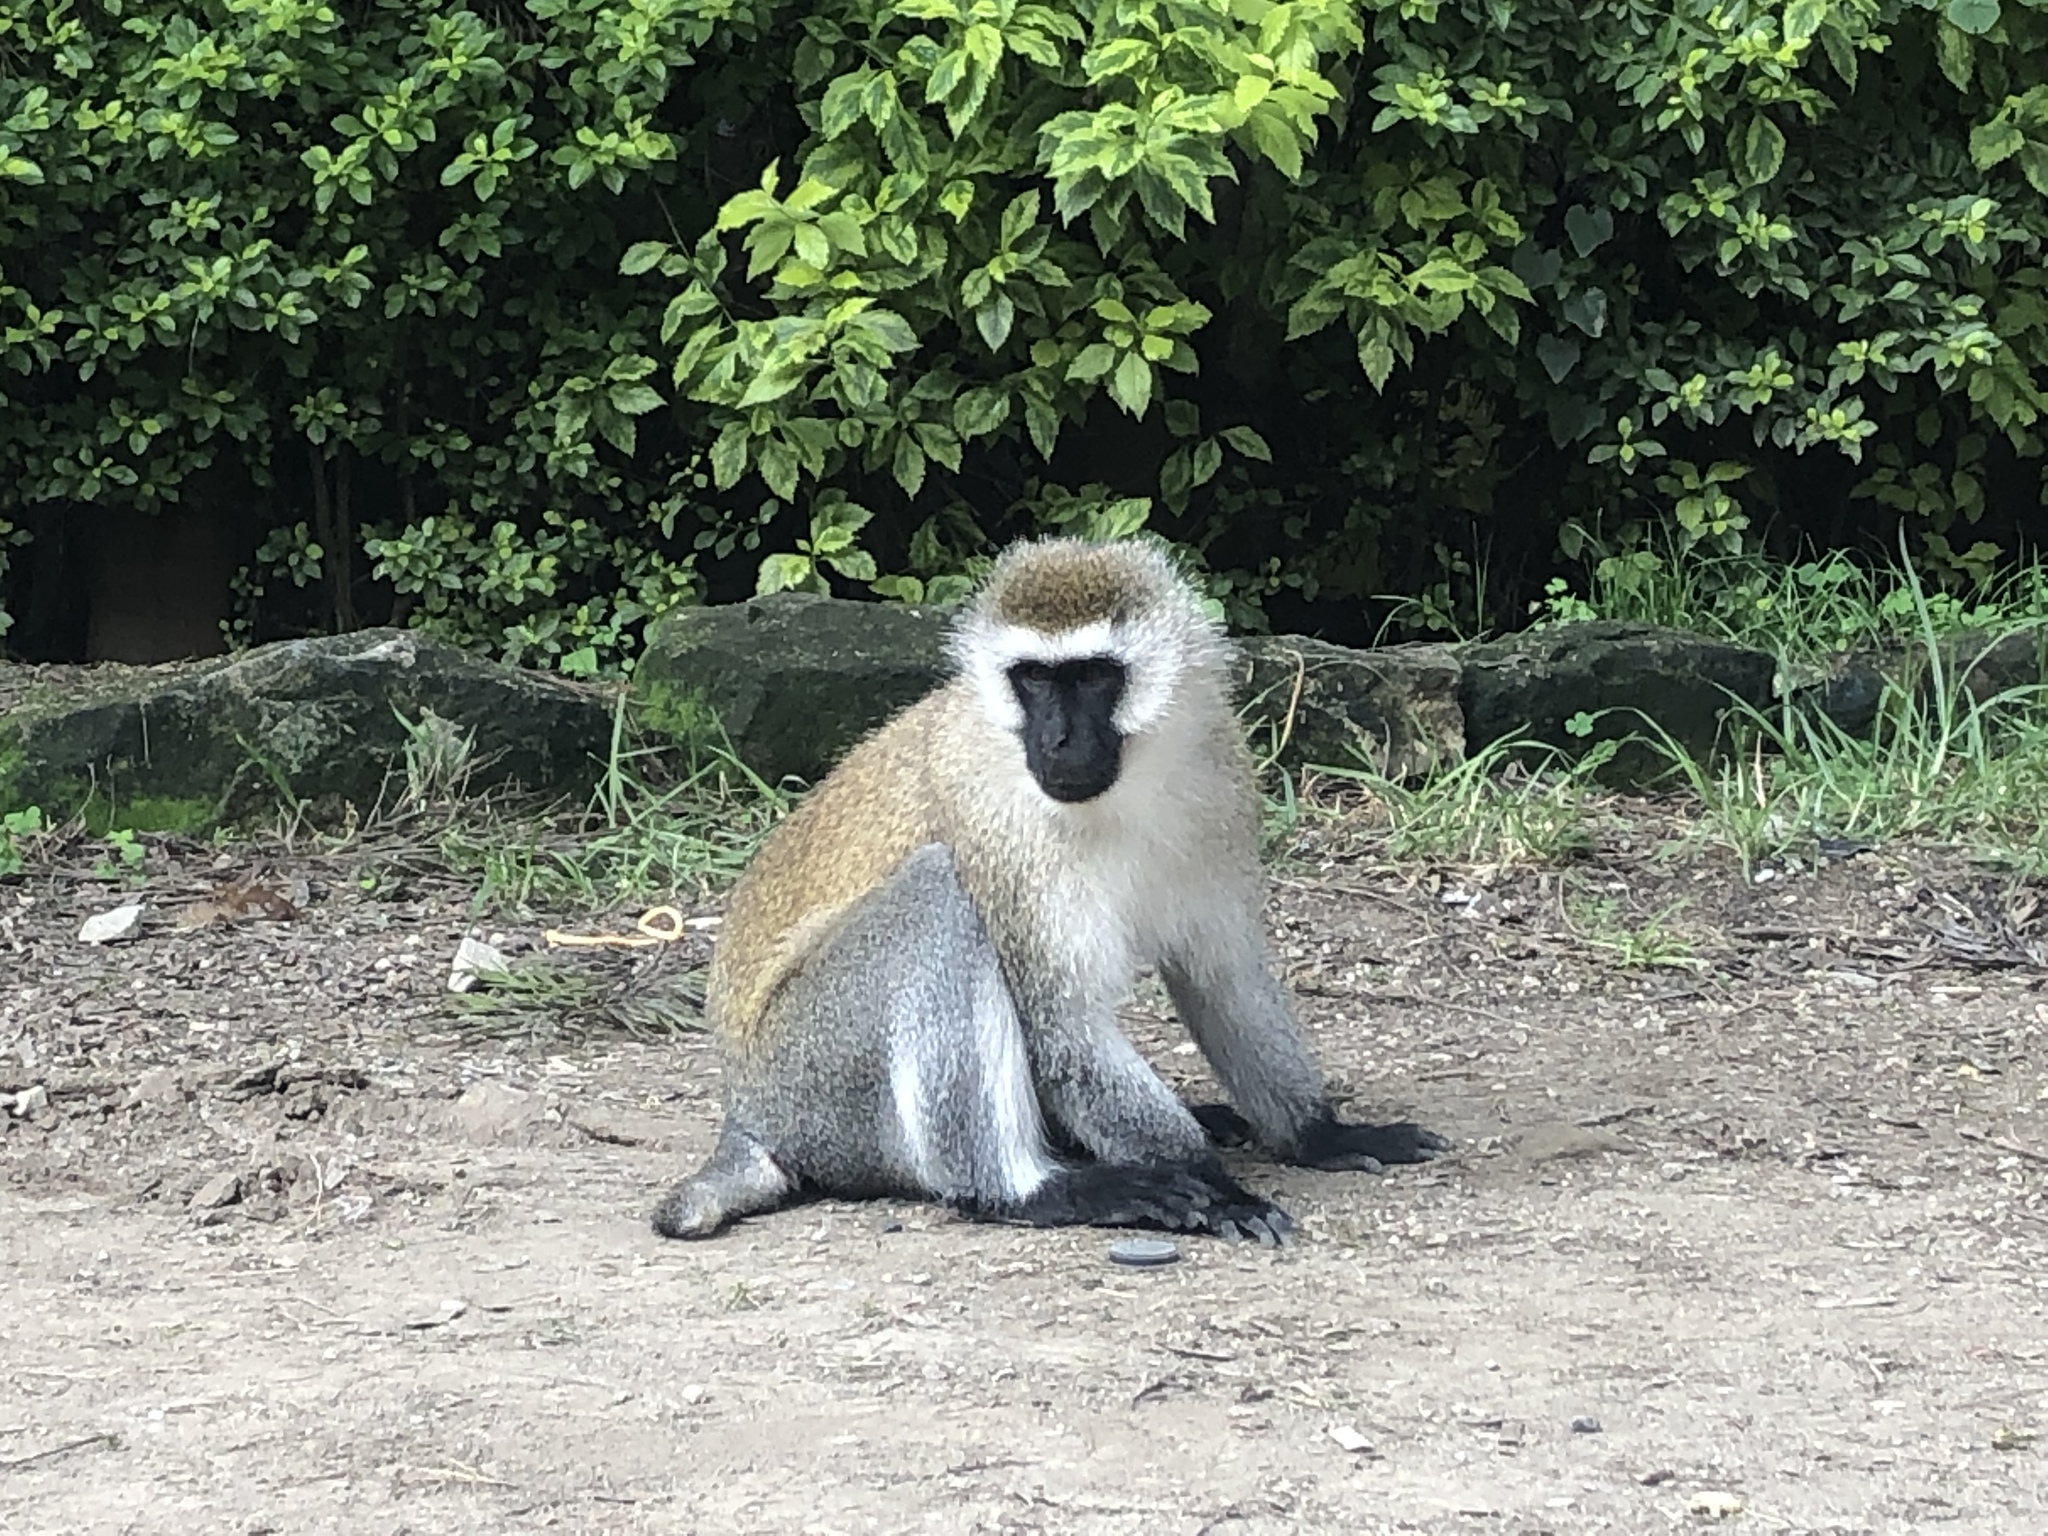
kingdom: Animalia
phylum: Chordata
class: Mammalia
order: Primates
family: Cercopithecidae
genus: Chlorocebus
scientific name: Chlorocebus pygerythrus
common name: Vervet monkey
